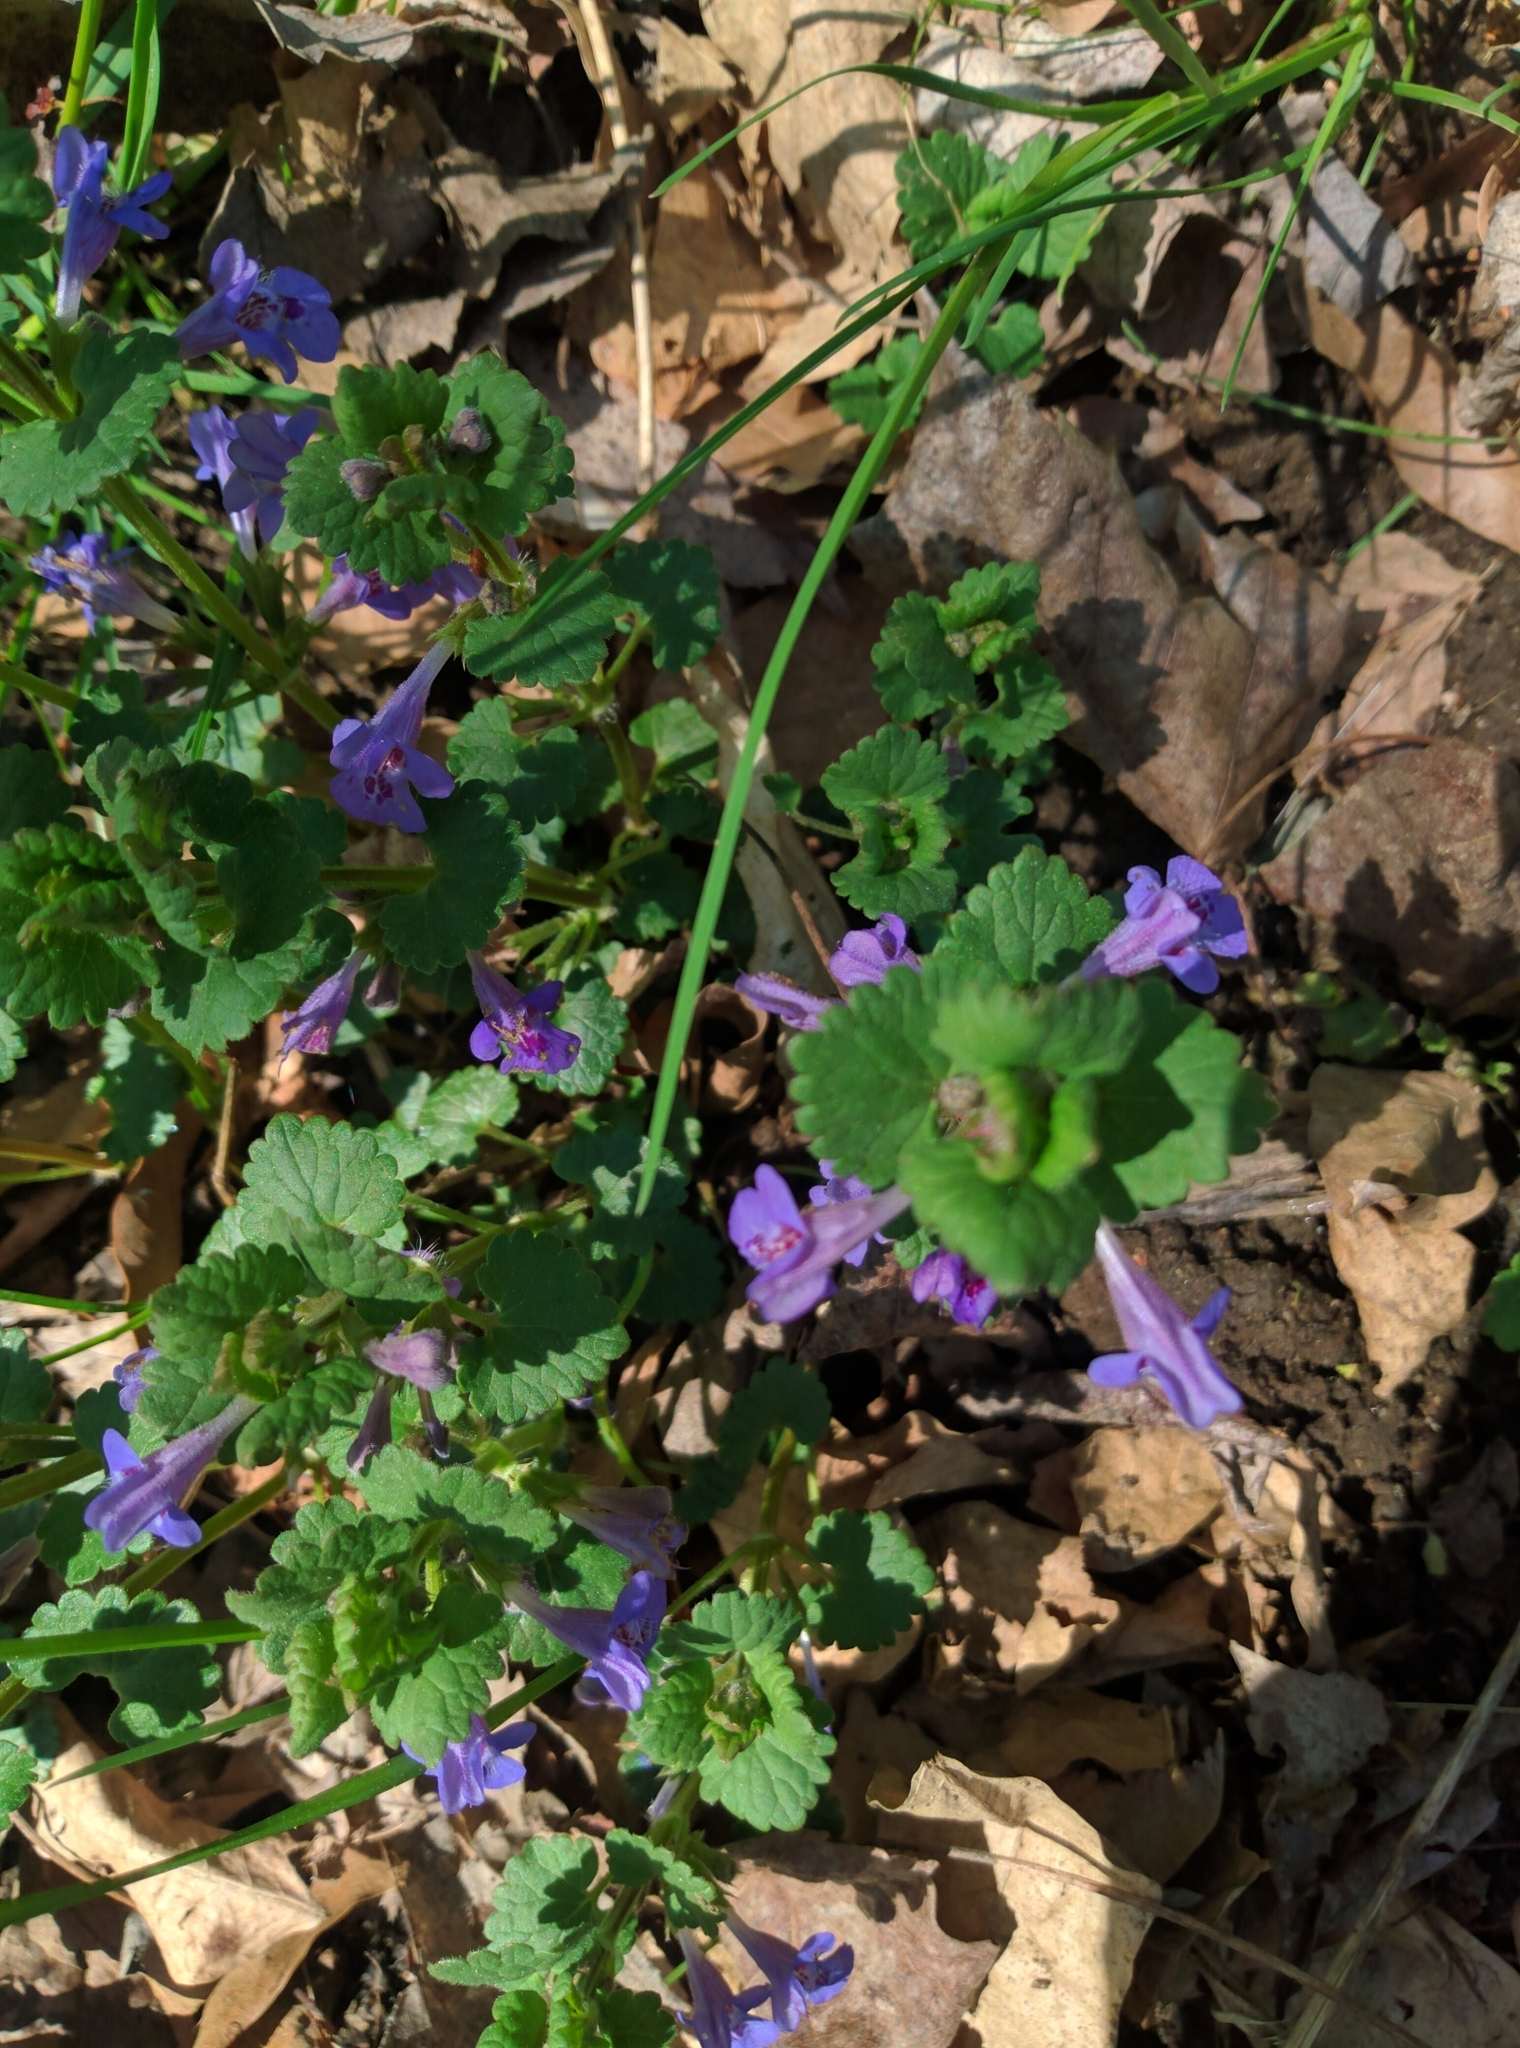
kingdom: Plantae
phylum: Tracheophyta
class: Magnoliopsida
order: Lamiales
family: Lamiaceae
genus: Glechoma
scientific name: Glechoma hederacea
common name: Ground ivy
